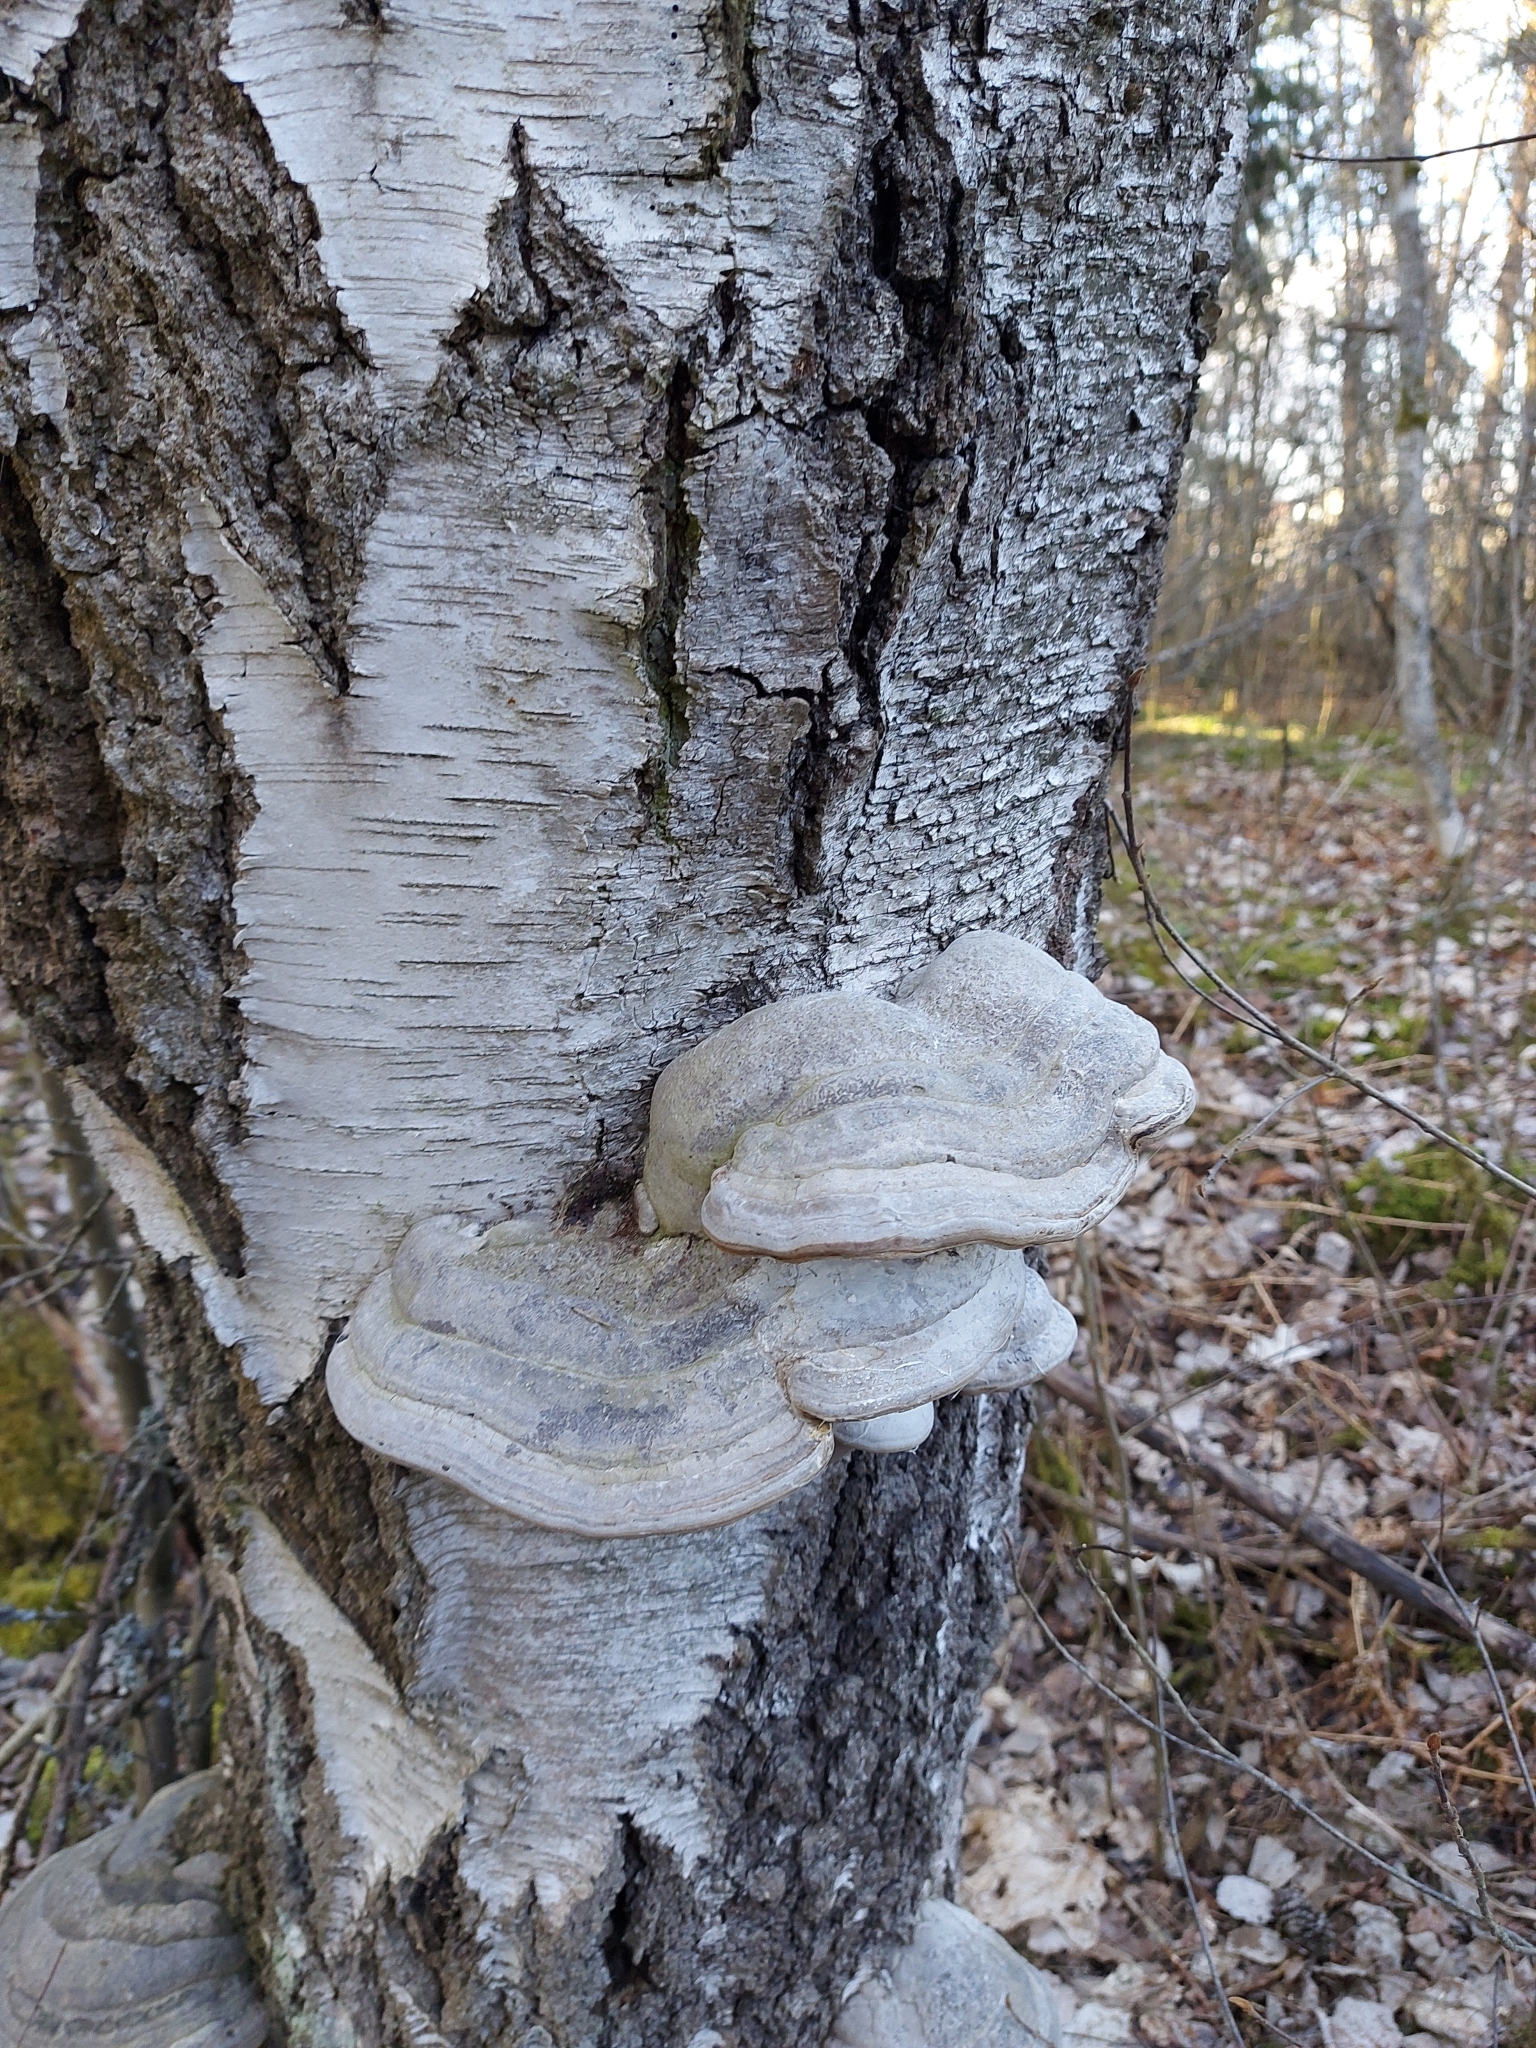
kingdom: Fungi
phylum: Basidiomycota
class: Agaricomycetes
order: Polyporales
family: Polyporaceae
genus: Fomes
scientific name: Fomes fomentarius
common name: Hoof fungus
